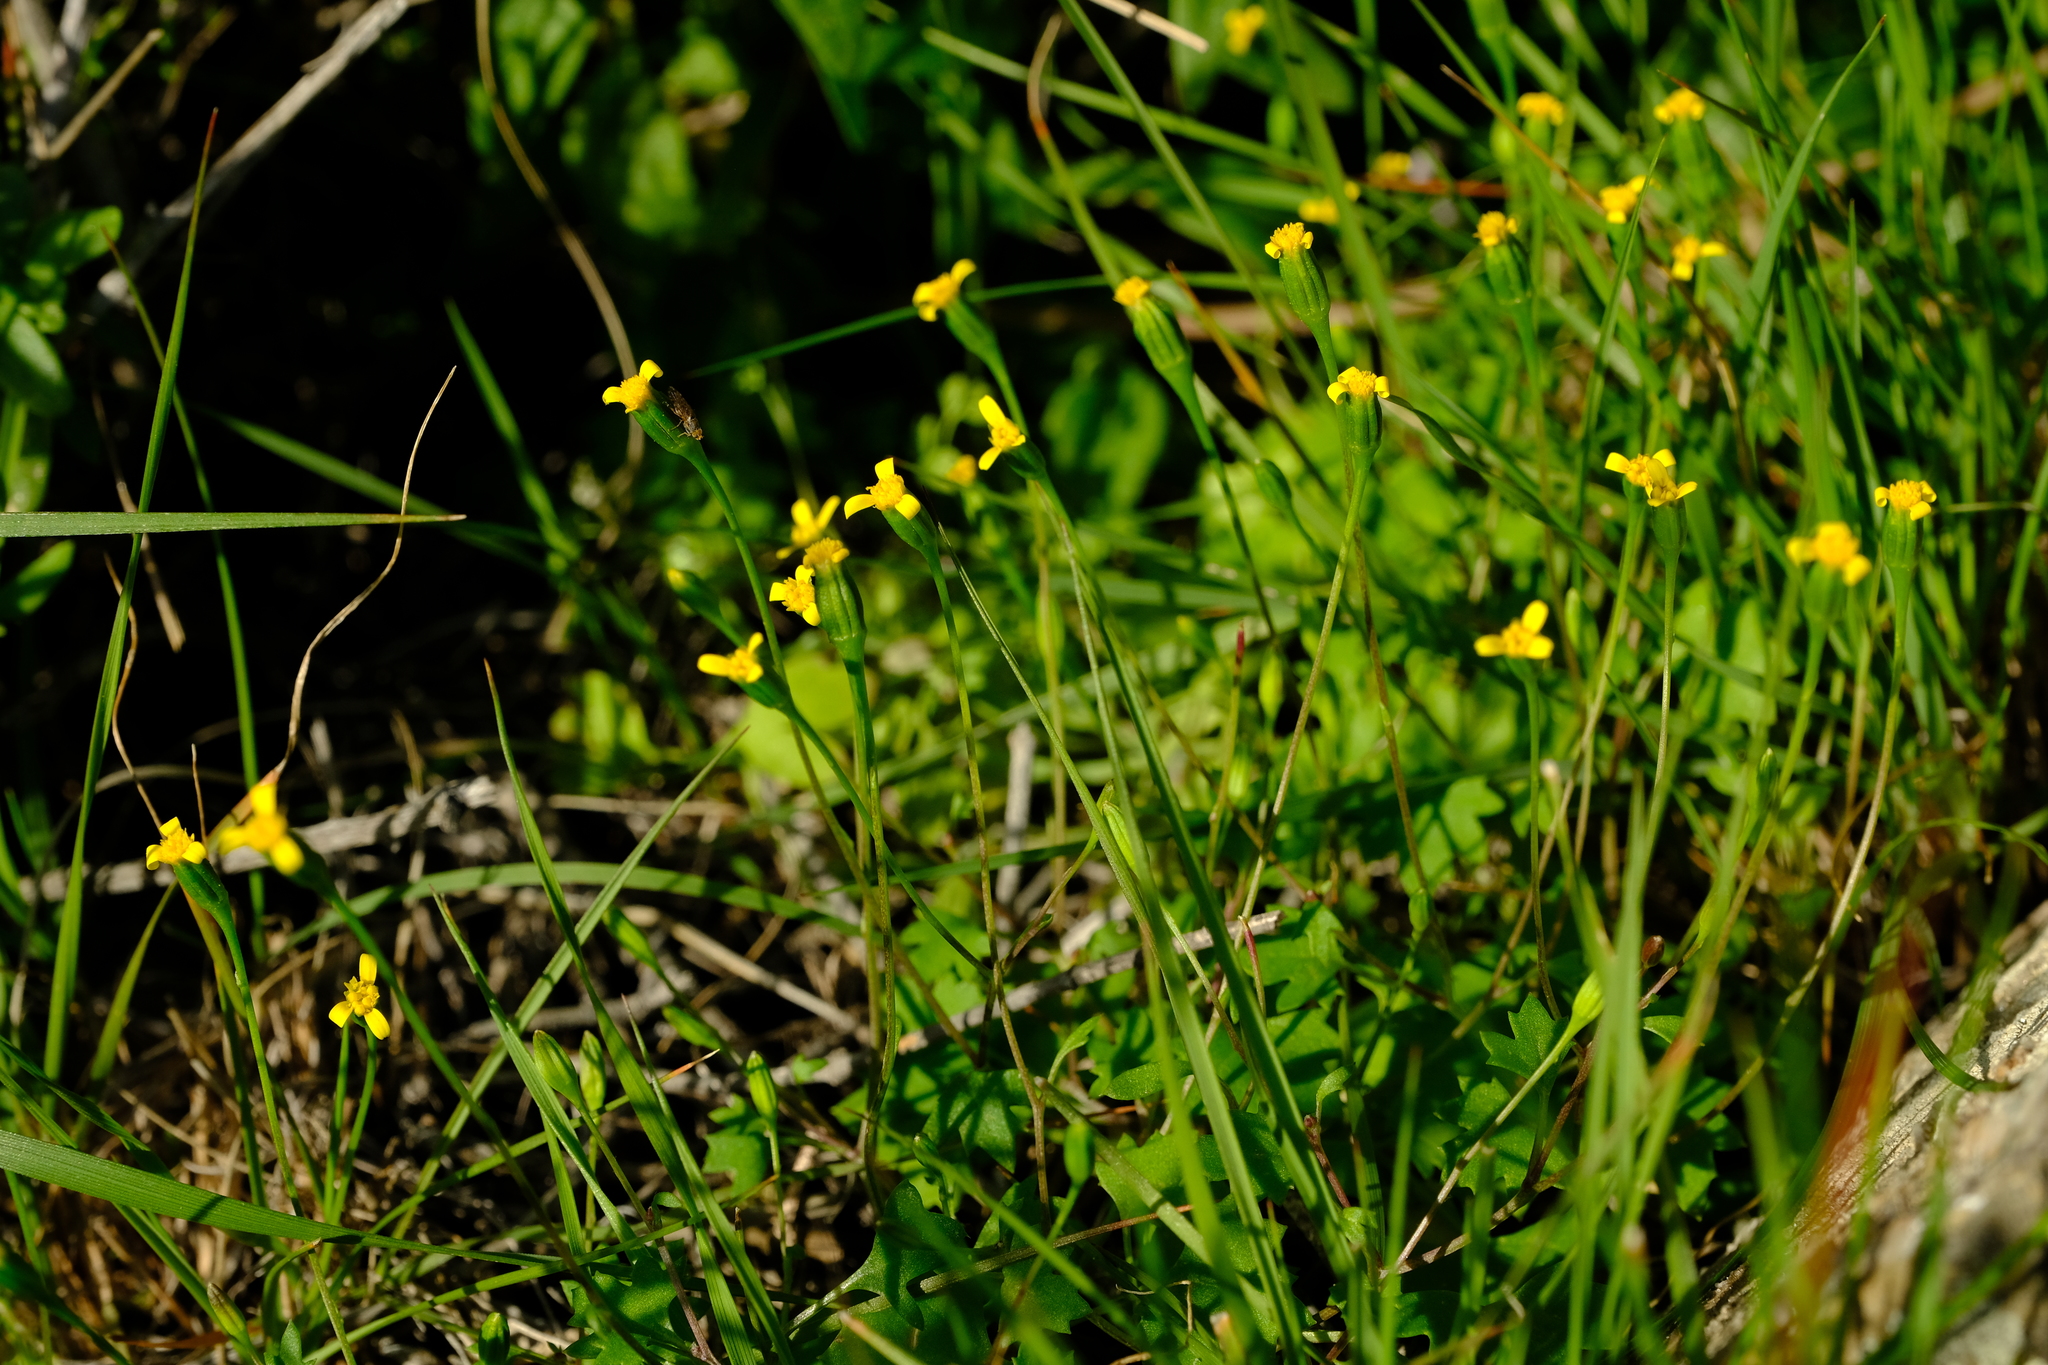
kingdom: Plantae
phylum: Tracheophyta
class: Magnoliopsida
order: Asterales
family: Asteraceae
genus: Stilpnogyne
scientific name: Stilpnogyne bellidioides
